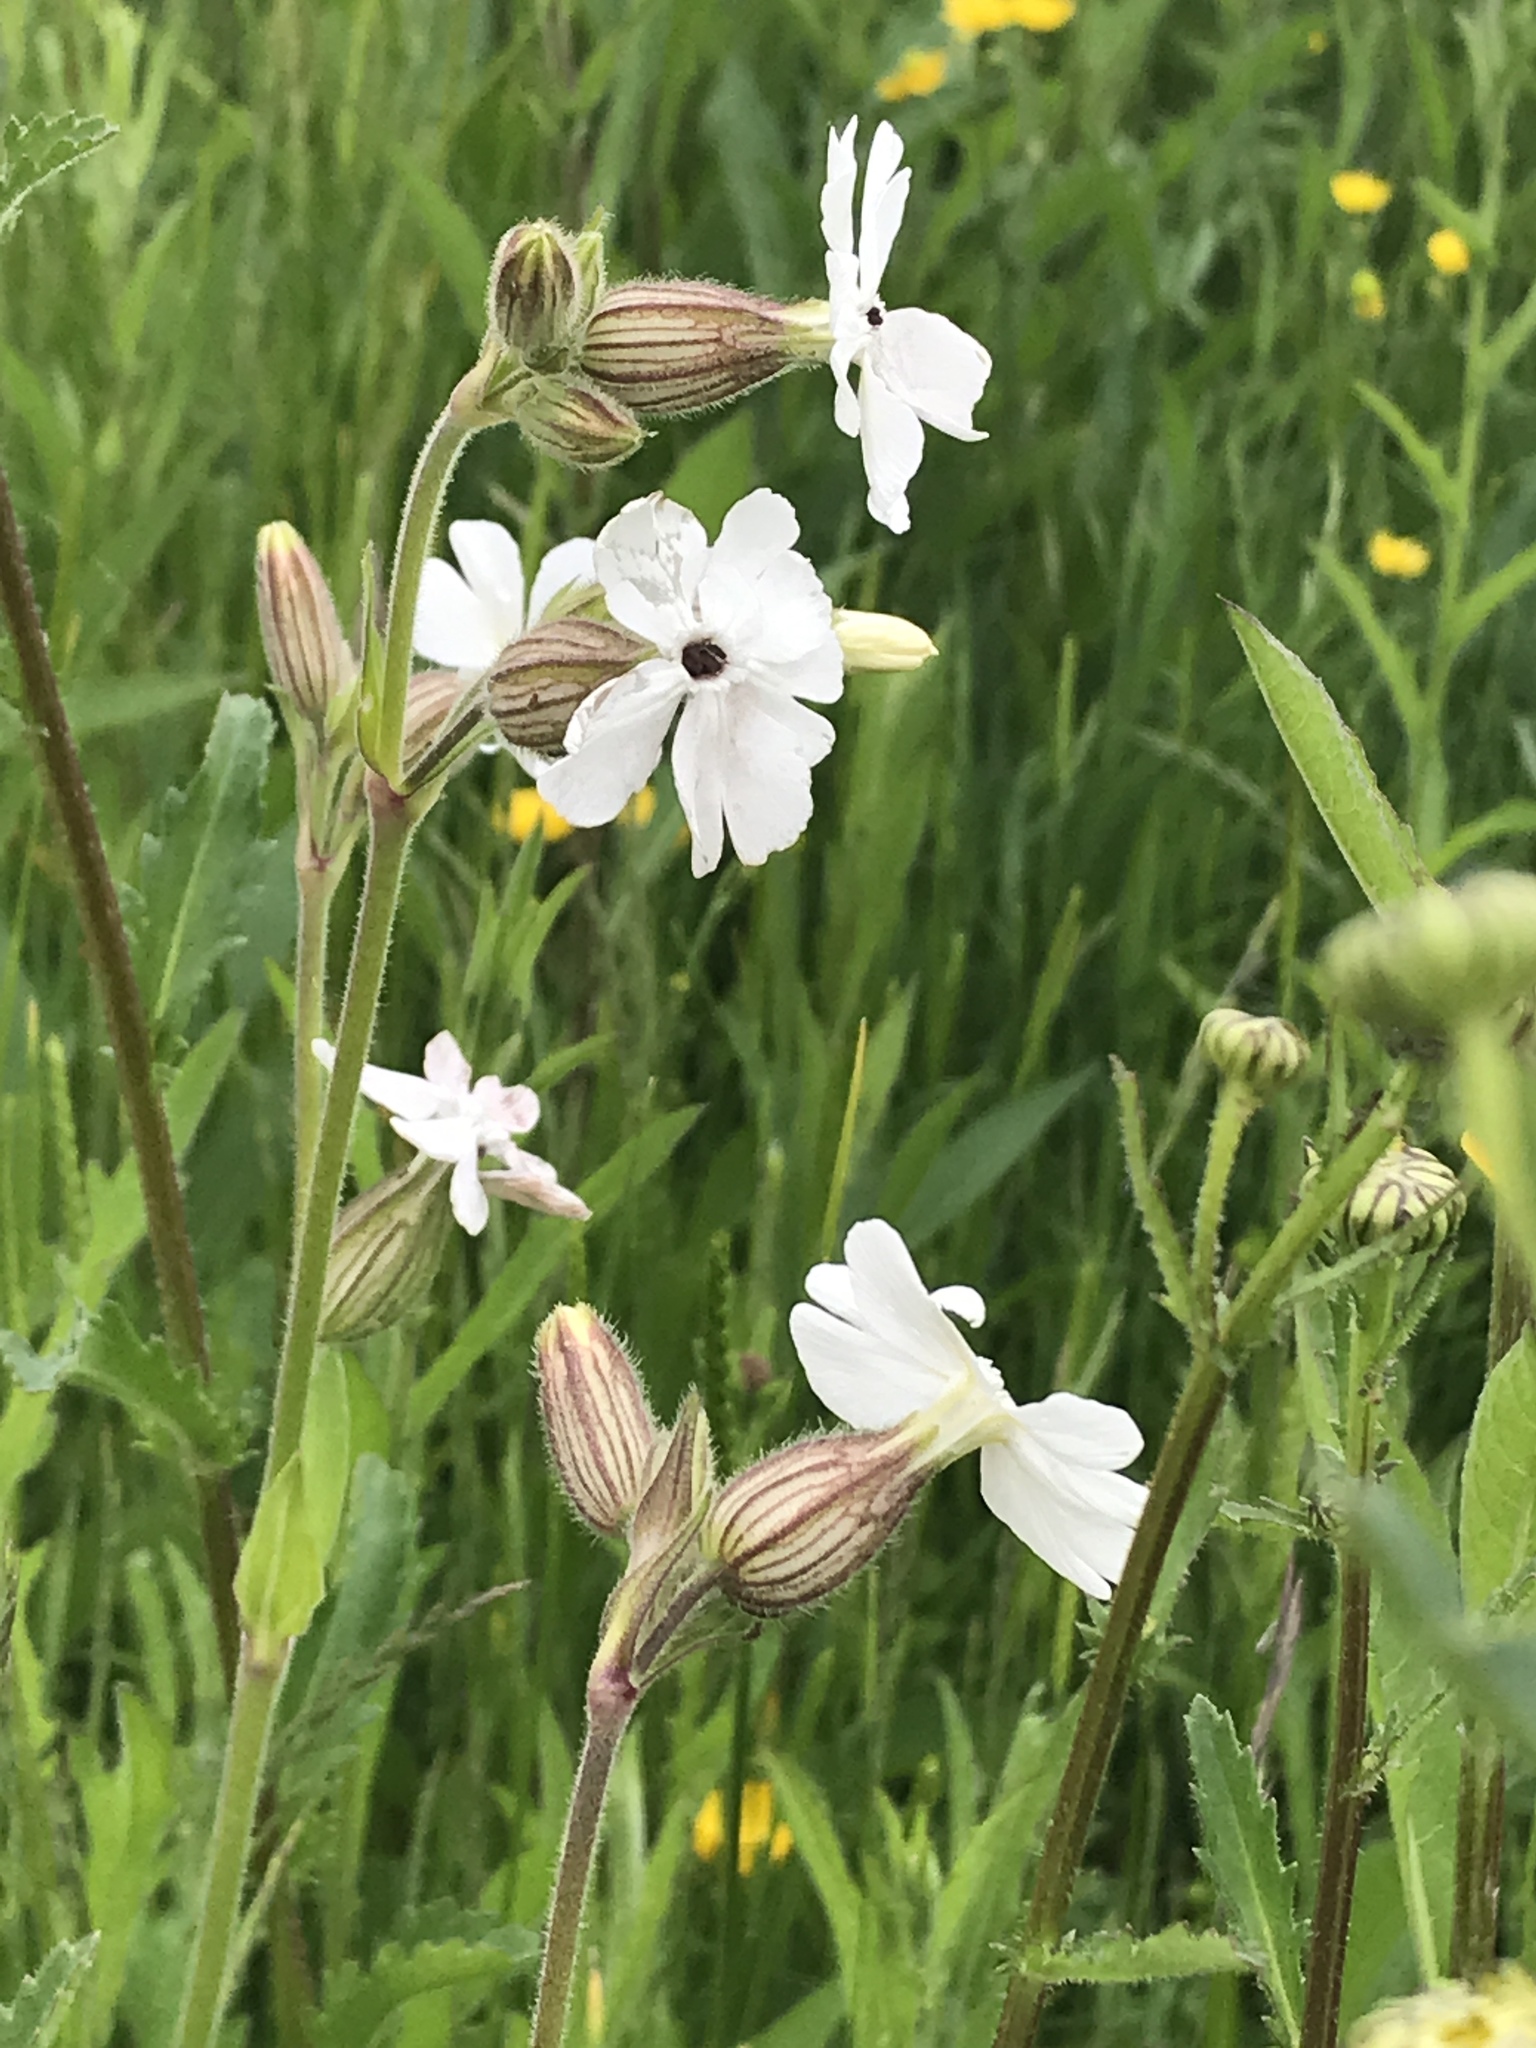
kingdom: Plantae
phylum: Tracheophyta
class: Magnoliopsida
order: Caryophyllales
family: Caryophyllaceae
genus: Silene
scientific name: Silene latifolia
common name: White campion
